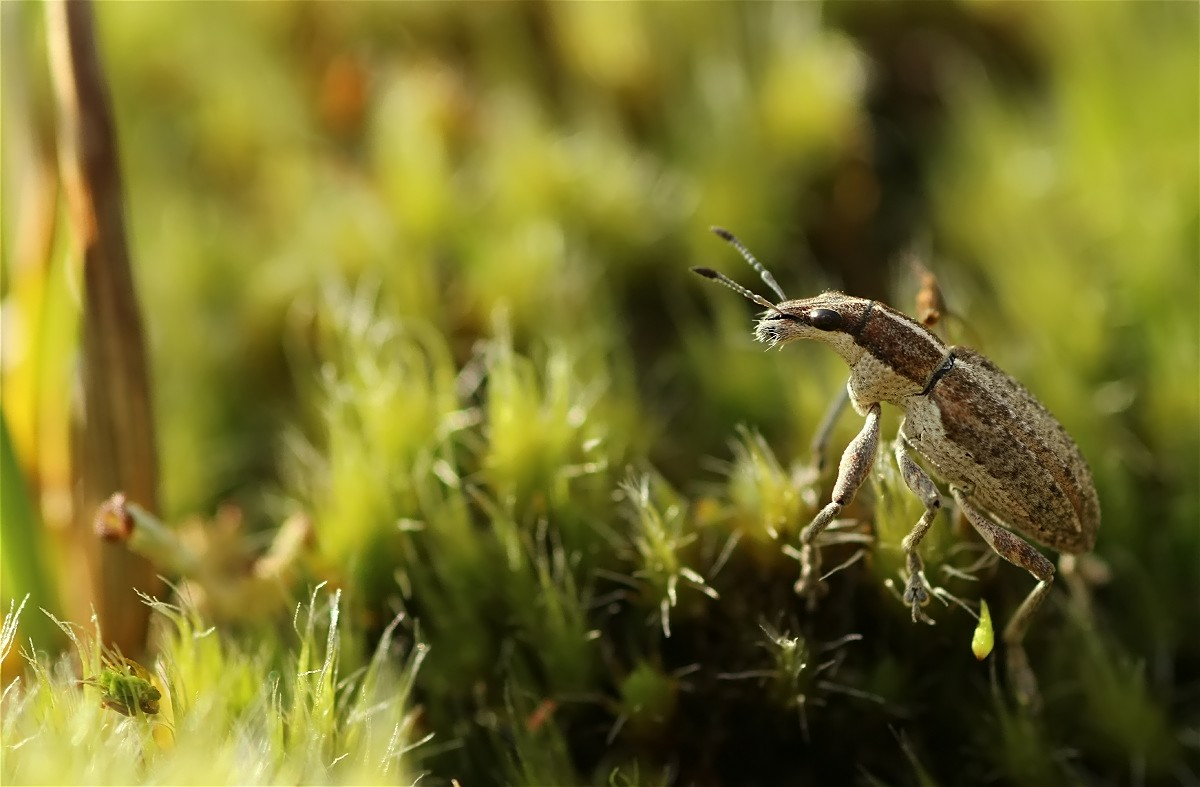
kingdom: Animalia
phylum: Arthropoda
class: Insecta
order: Coleoptera
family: Curculionidae
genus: Charagmus
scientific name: Charagmus gressorius
